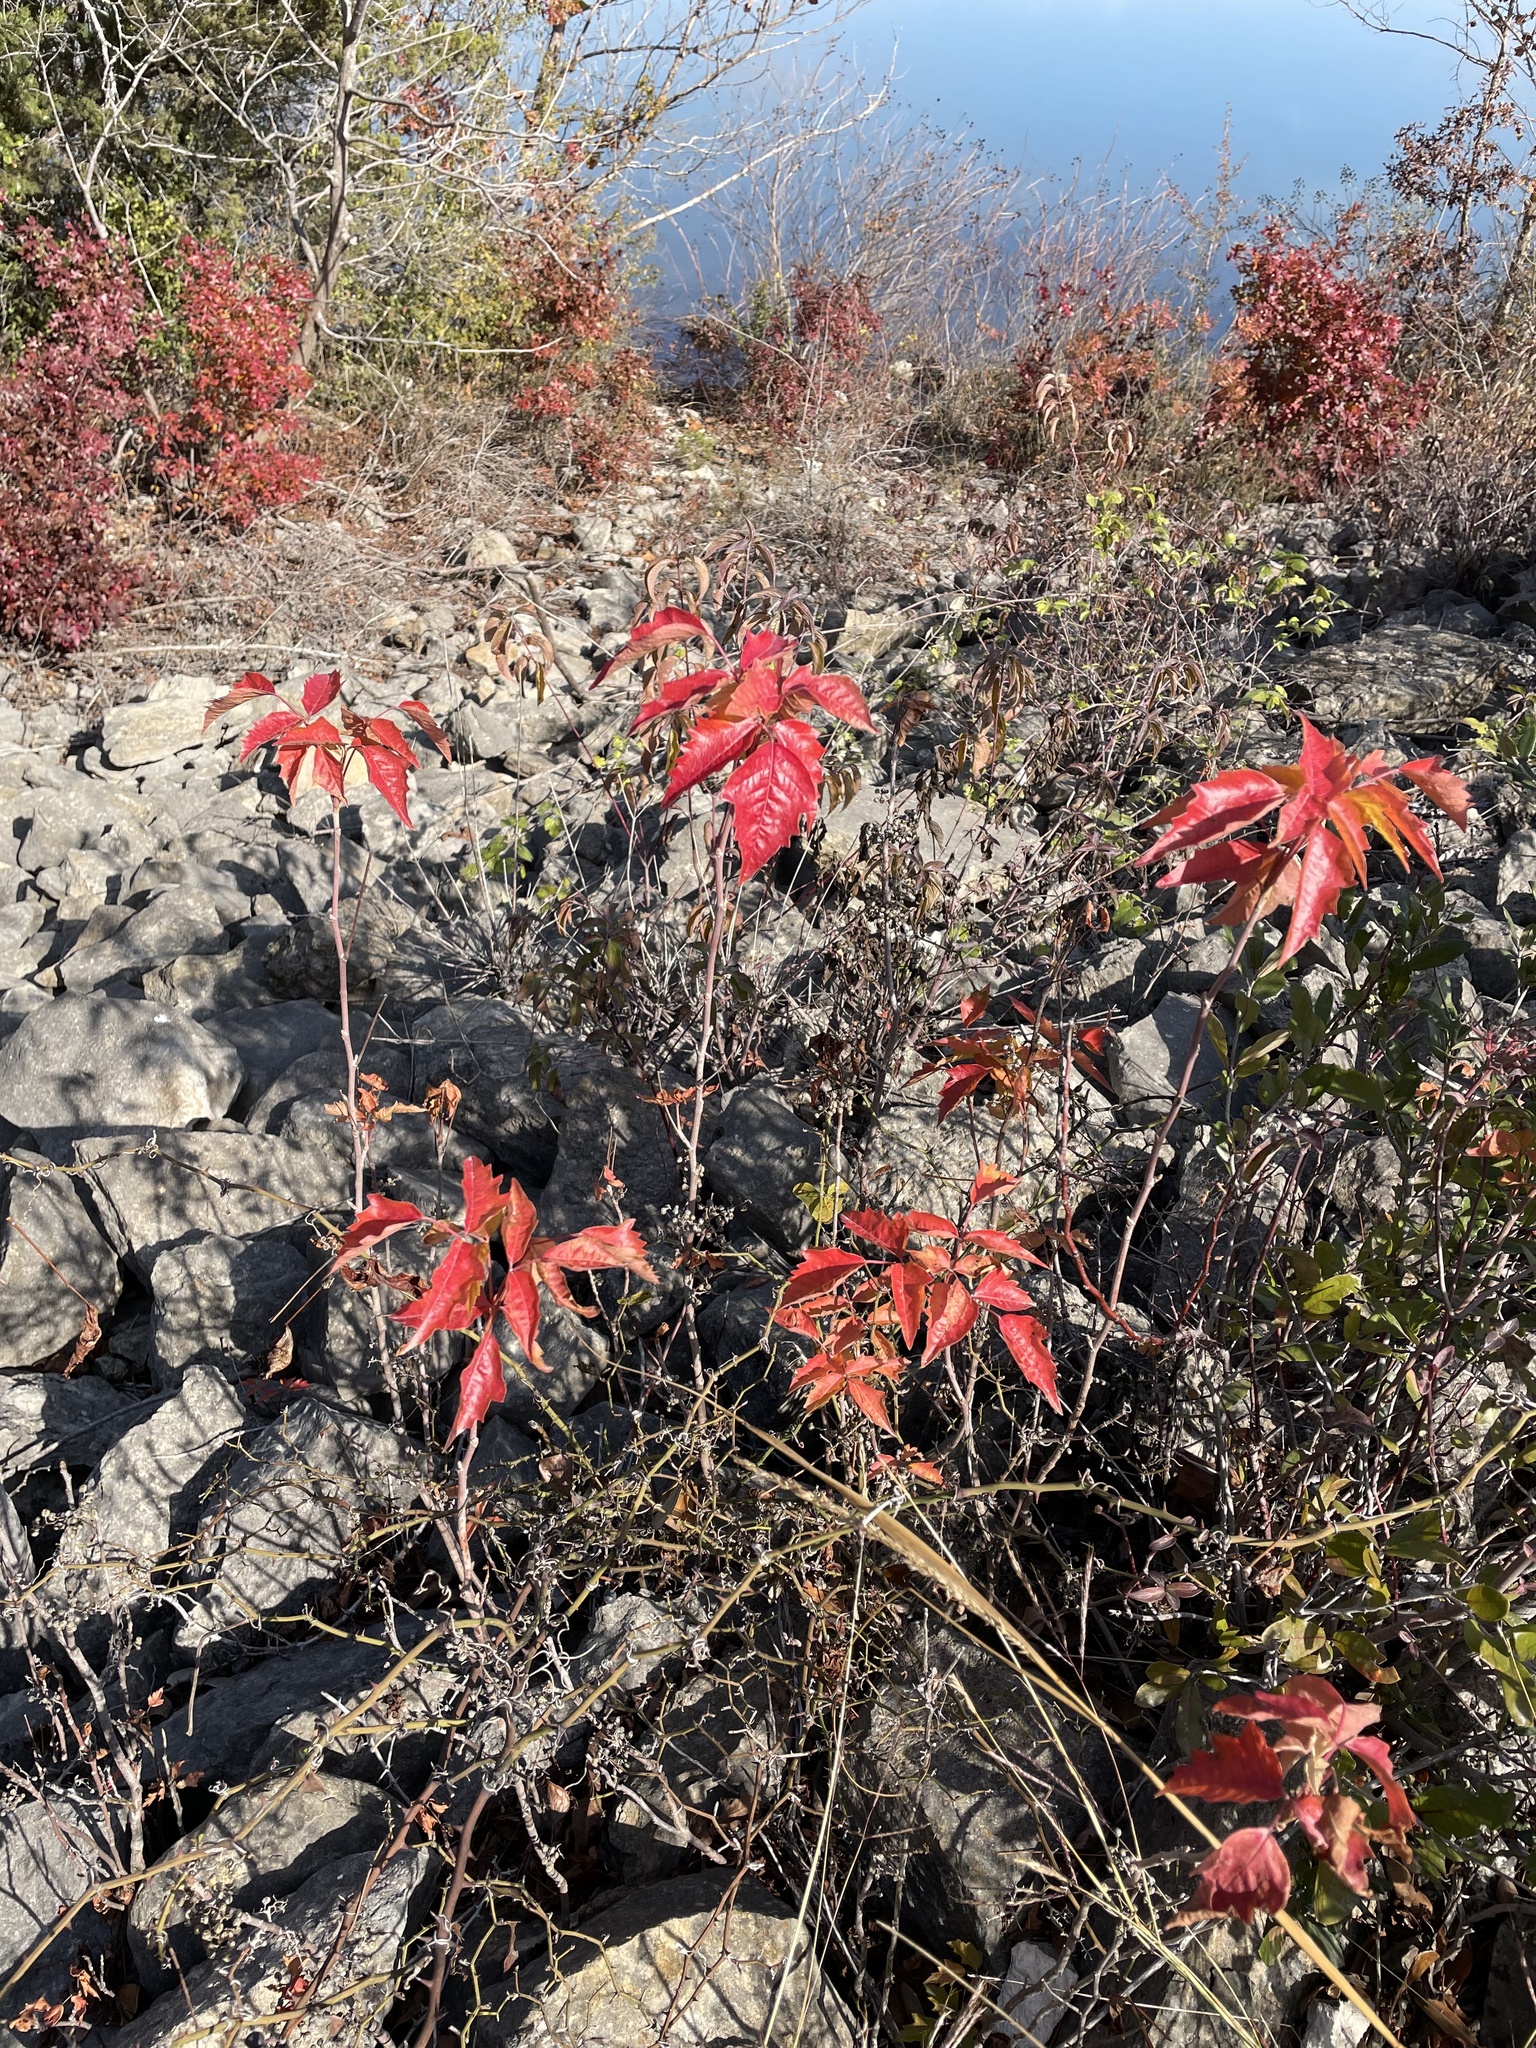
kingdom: Plantae
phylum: Tracheophyta
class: Magnoliopsida
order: Sapindales
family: Anacardiaceae
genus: Toxicodendron
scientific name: Toxicodendron radicans
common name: Poison ivy
